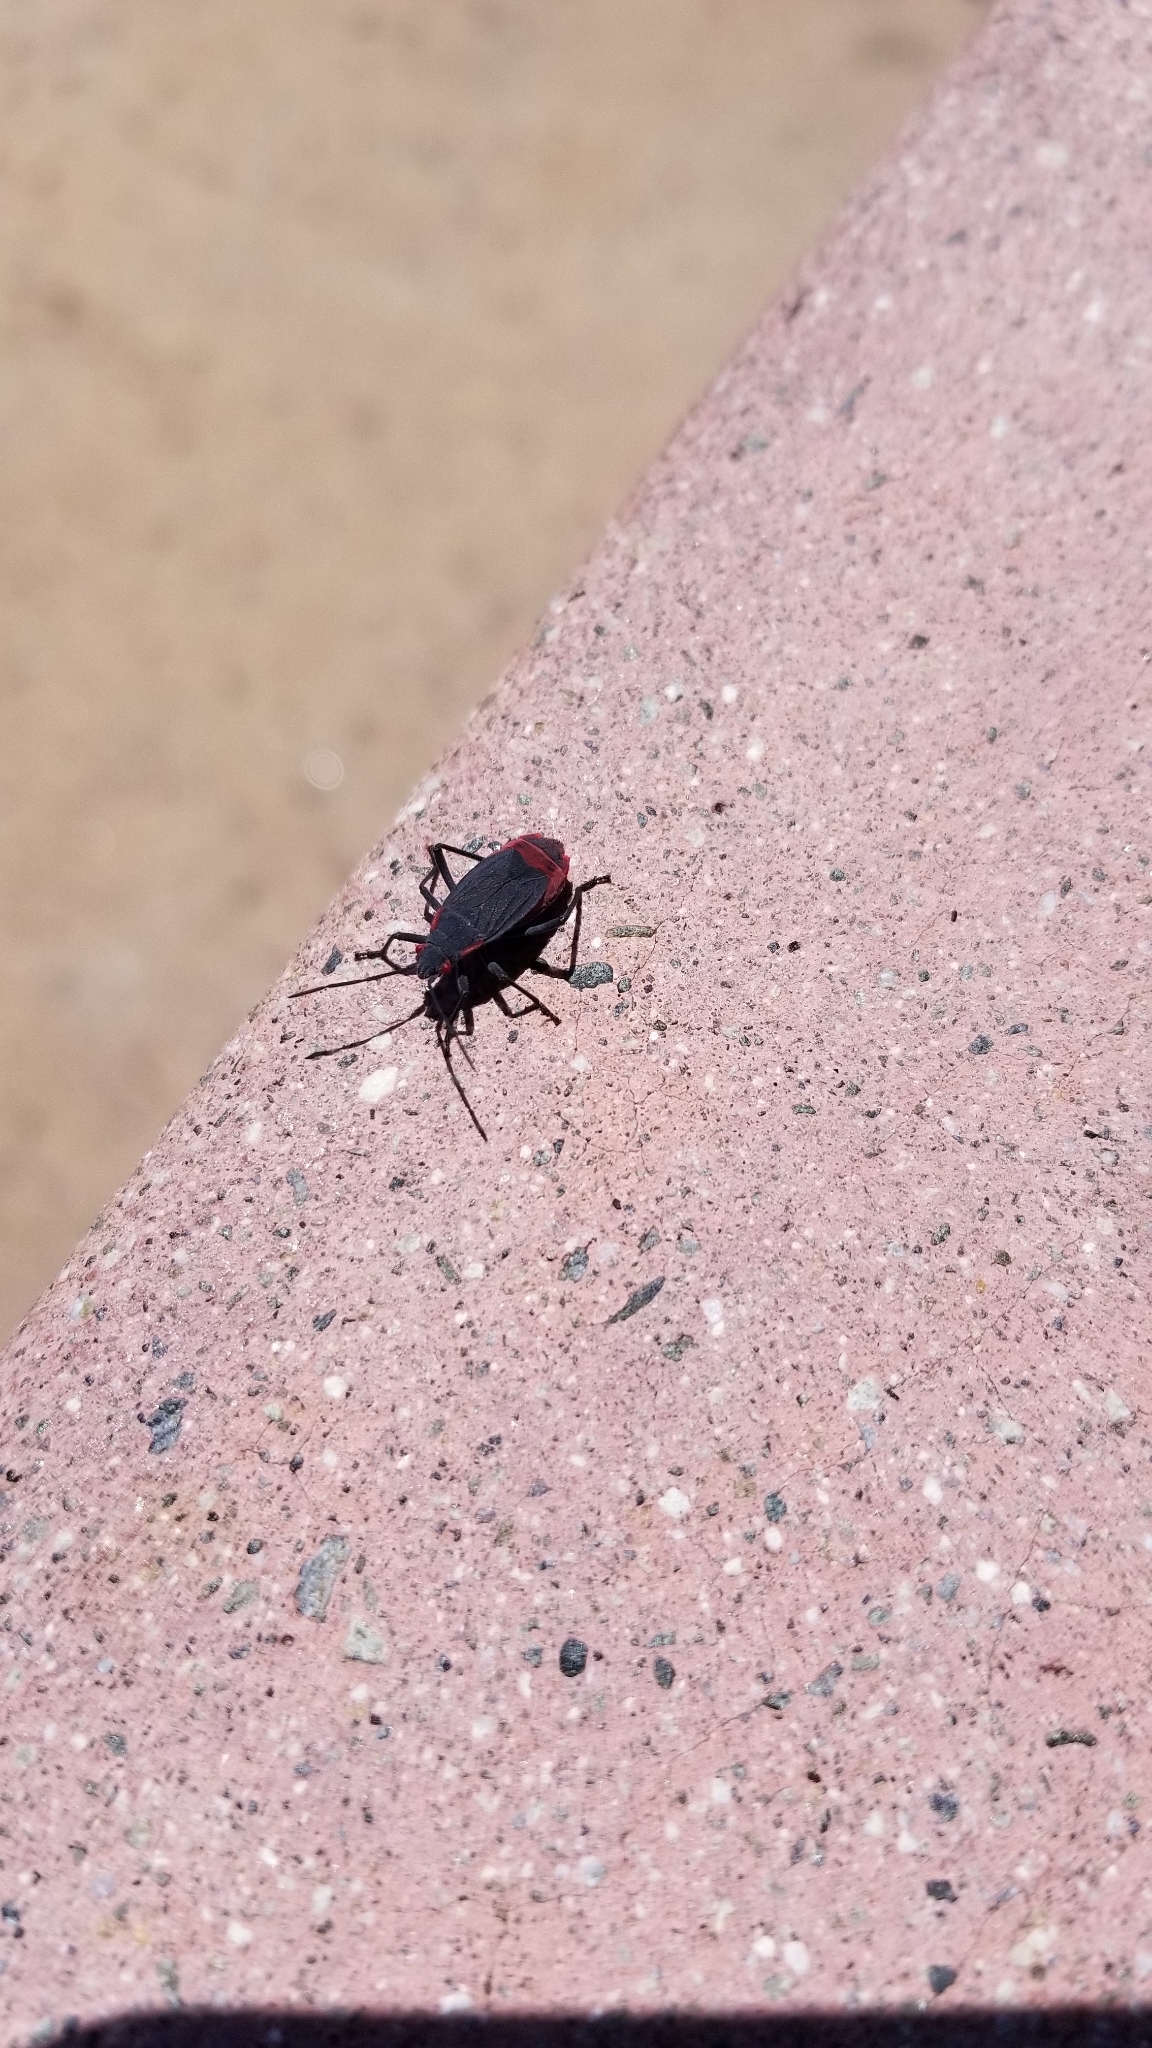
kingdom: Animalia
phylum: Arthropoda
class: Insecta
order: Hemiptera
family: Rhopalidae
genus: Jadera
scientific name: Jadera haematoloma
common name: Red-shouldered bug
